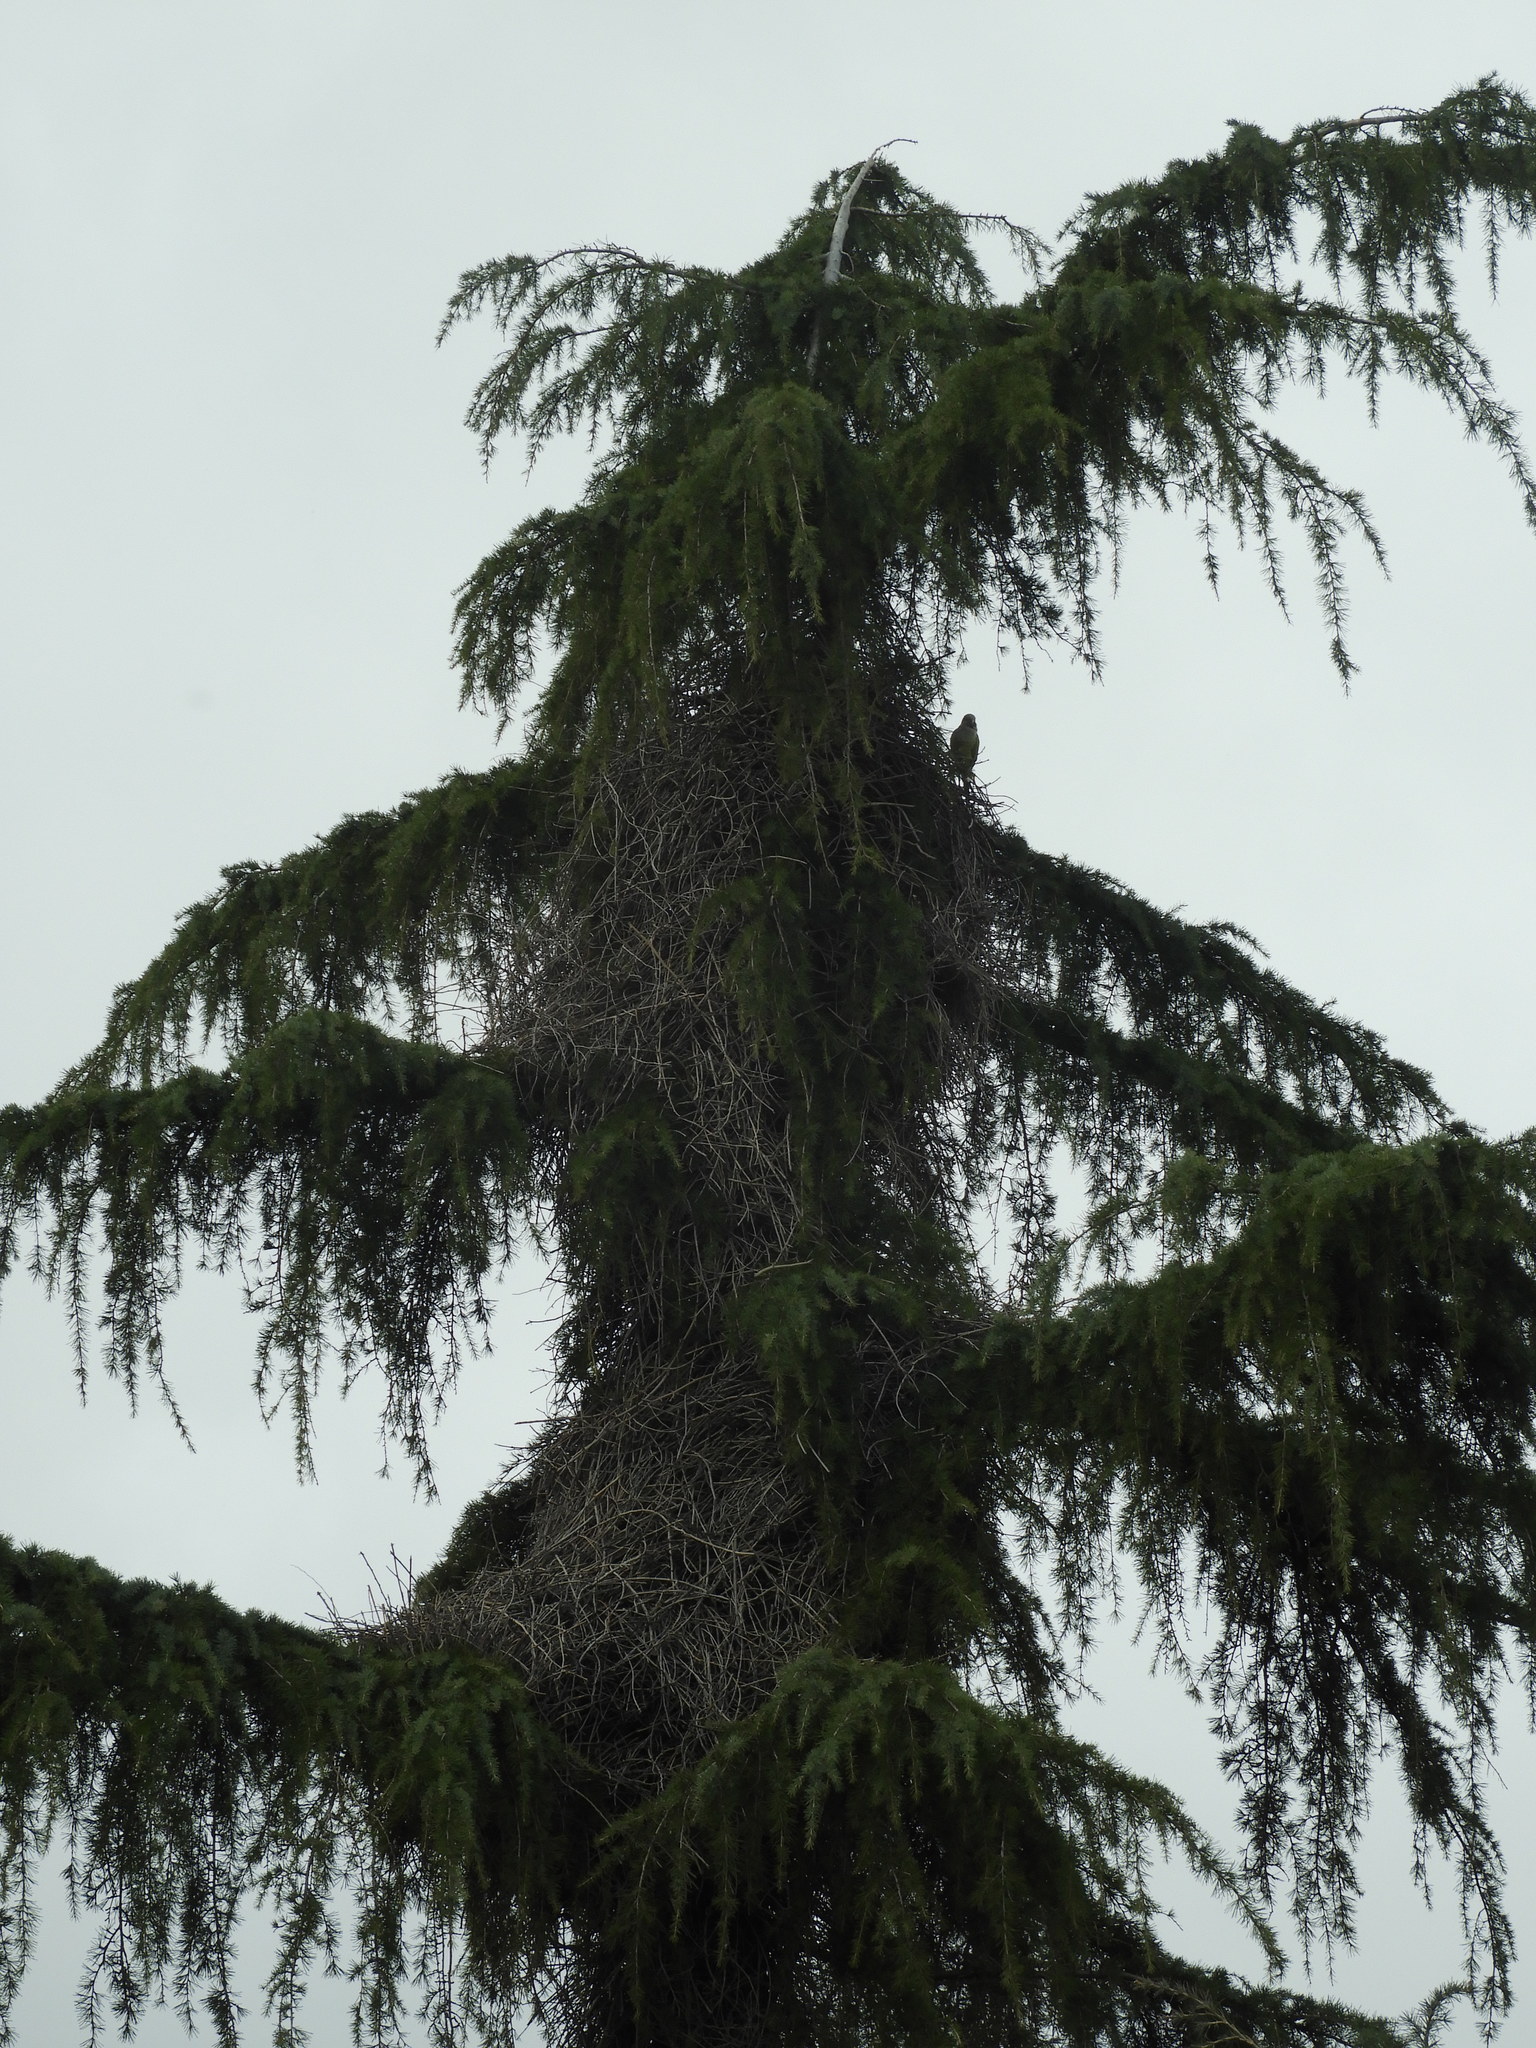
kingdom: Animalia
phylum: Chordata
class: Aves
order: Psittaciformes
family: Psittacidae
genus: Myiopsitta
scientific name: Myiopsitta monachus
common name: Monk parakeet
